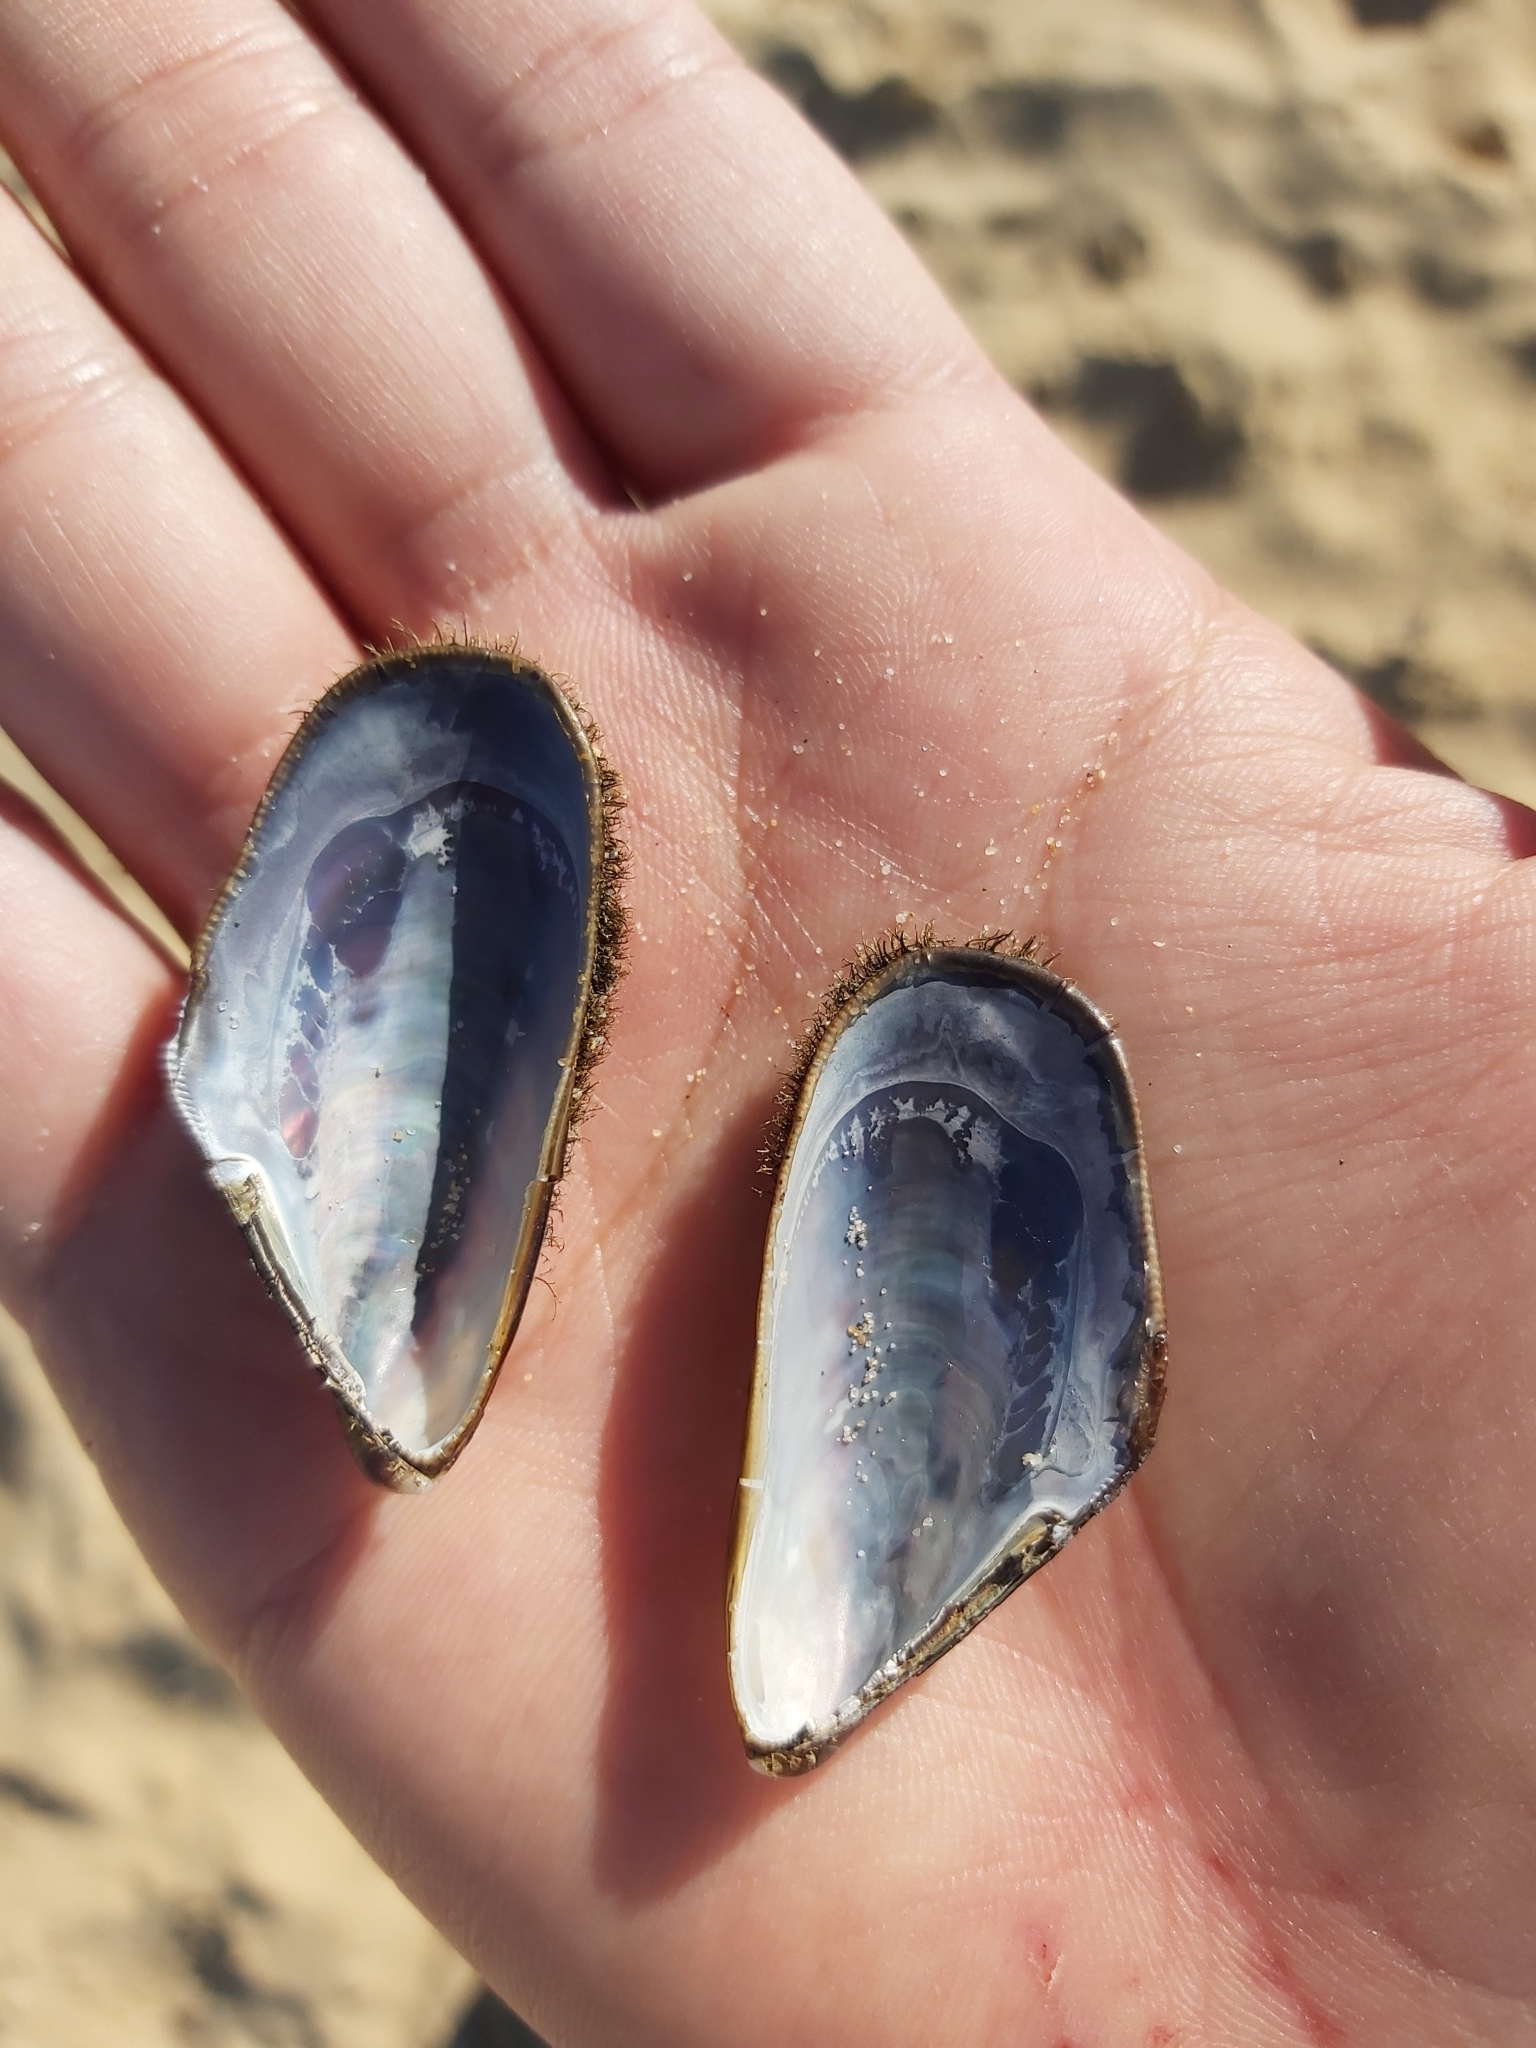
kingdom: Animalia
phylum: Mollusca
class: Bivalvia
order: Mytilida
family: Mytilidae
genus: Trichomya
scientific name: Trichomya hirsuta
